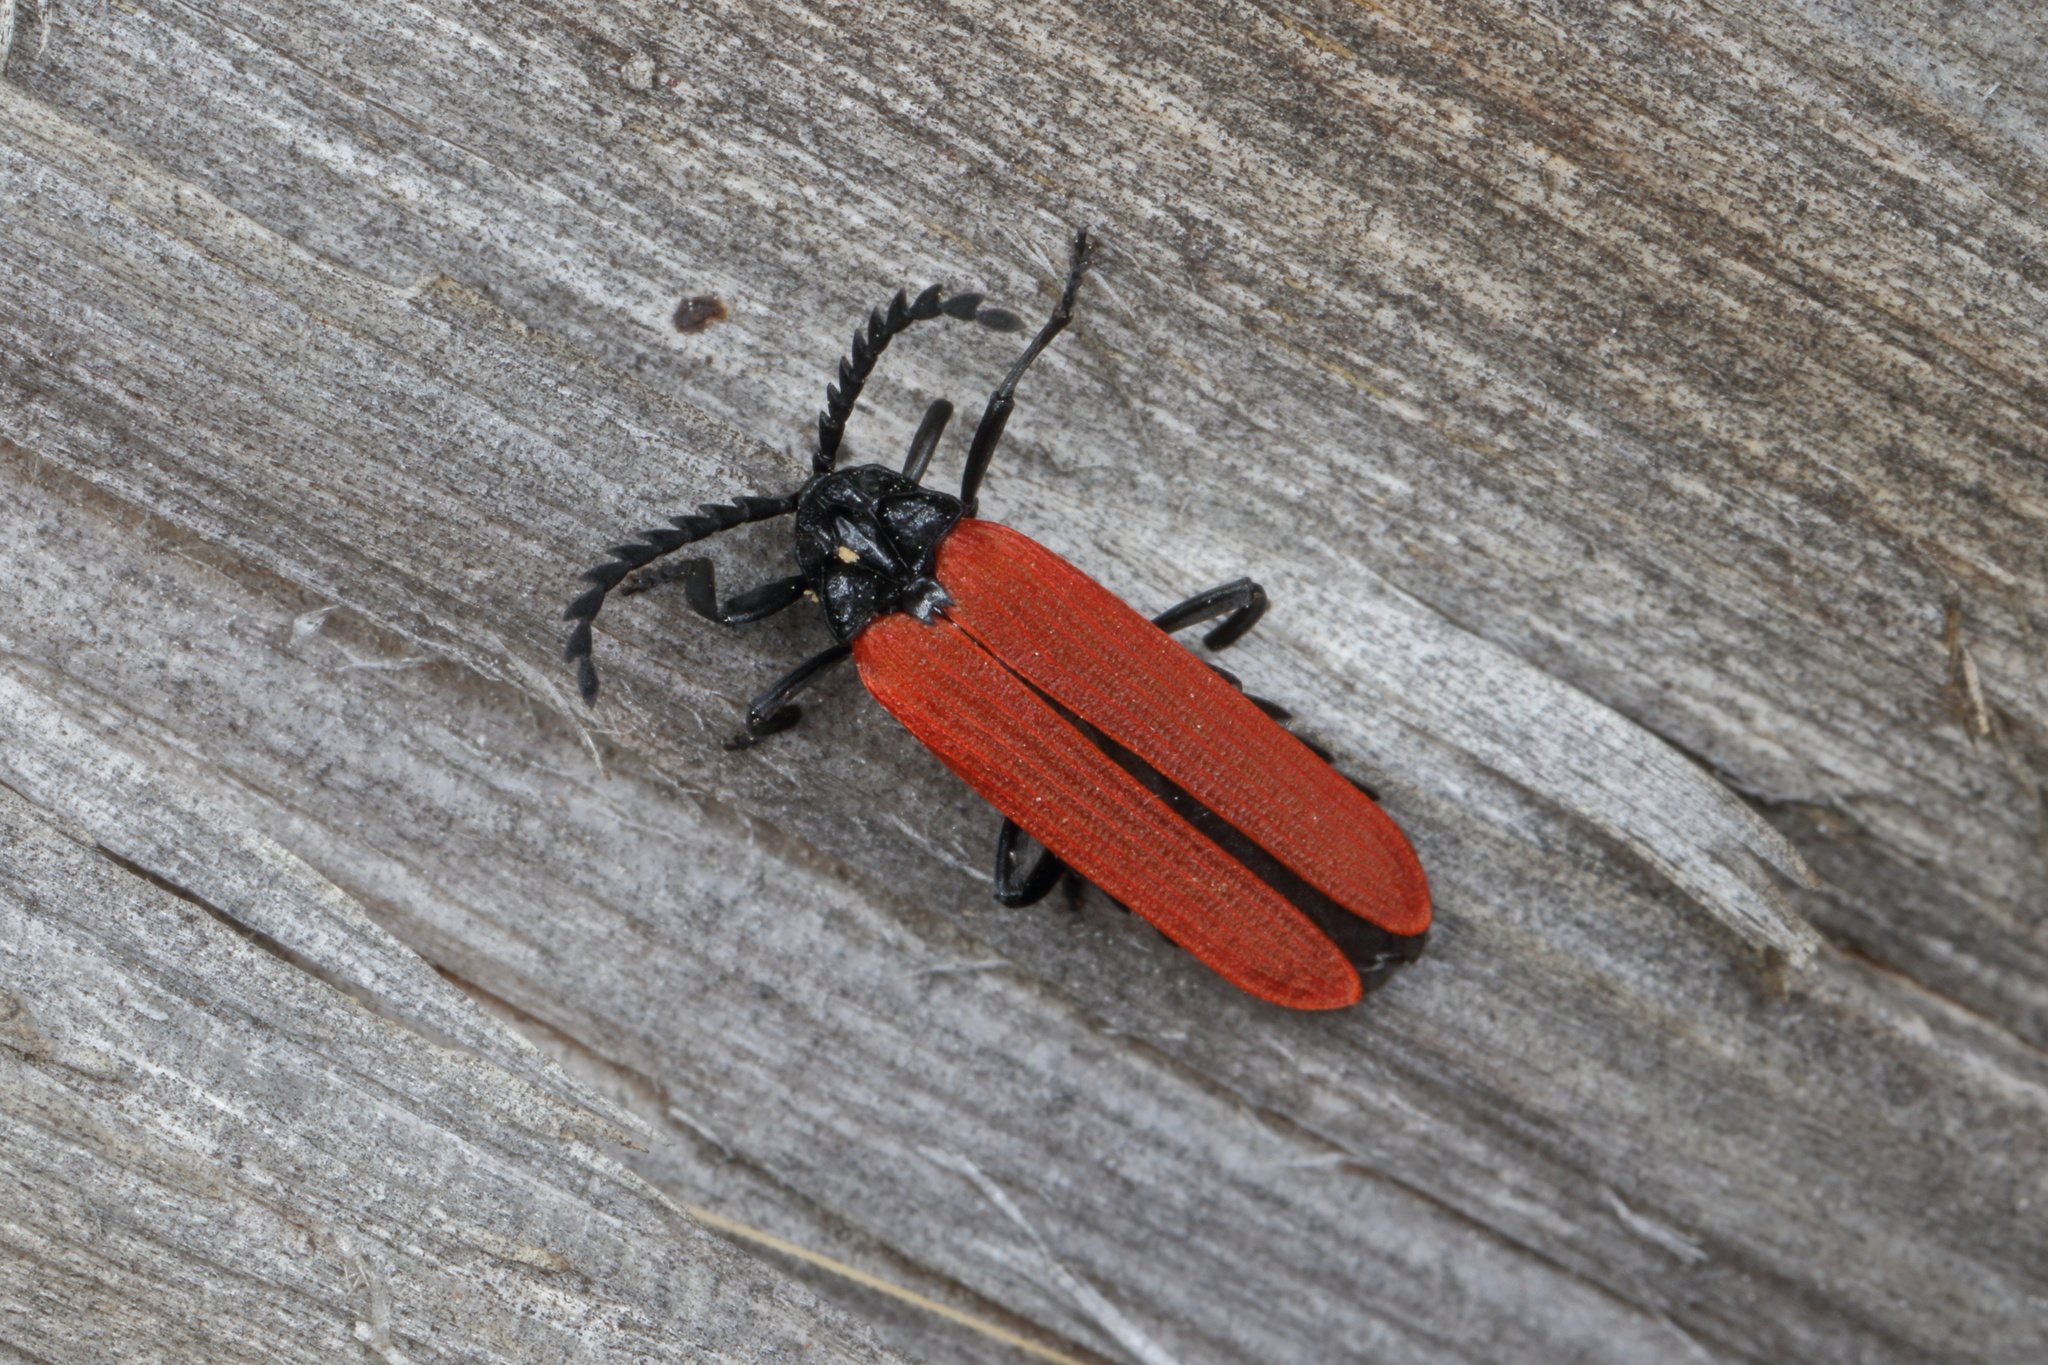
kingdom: Animalia
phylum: Arthropoda
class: Insecta
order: Coleoptera
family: Lycidae
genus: Porrostoma
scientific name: Porrostoma rufipenne
